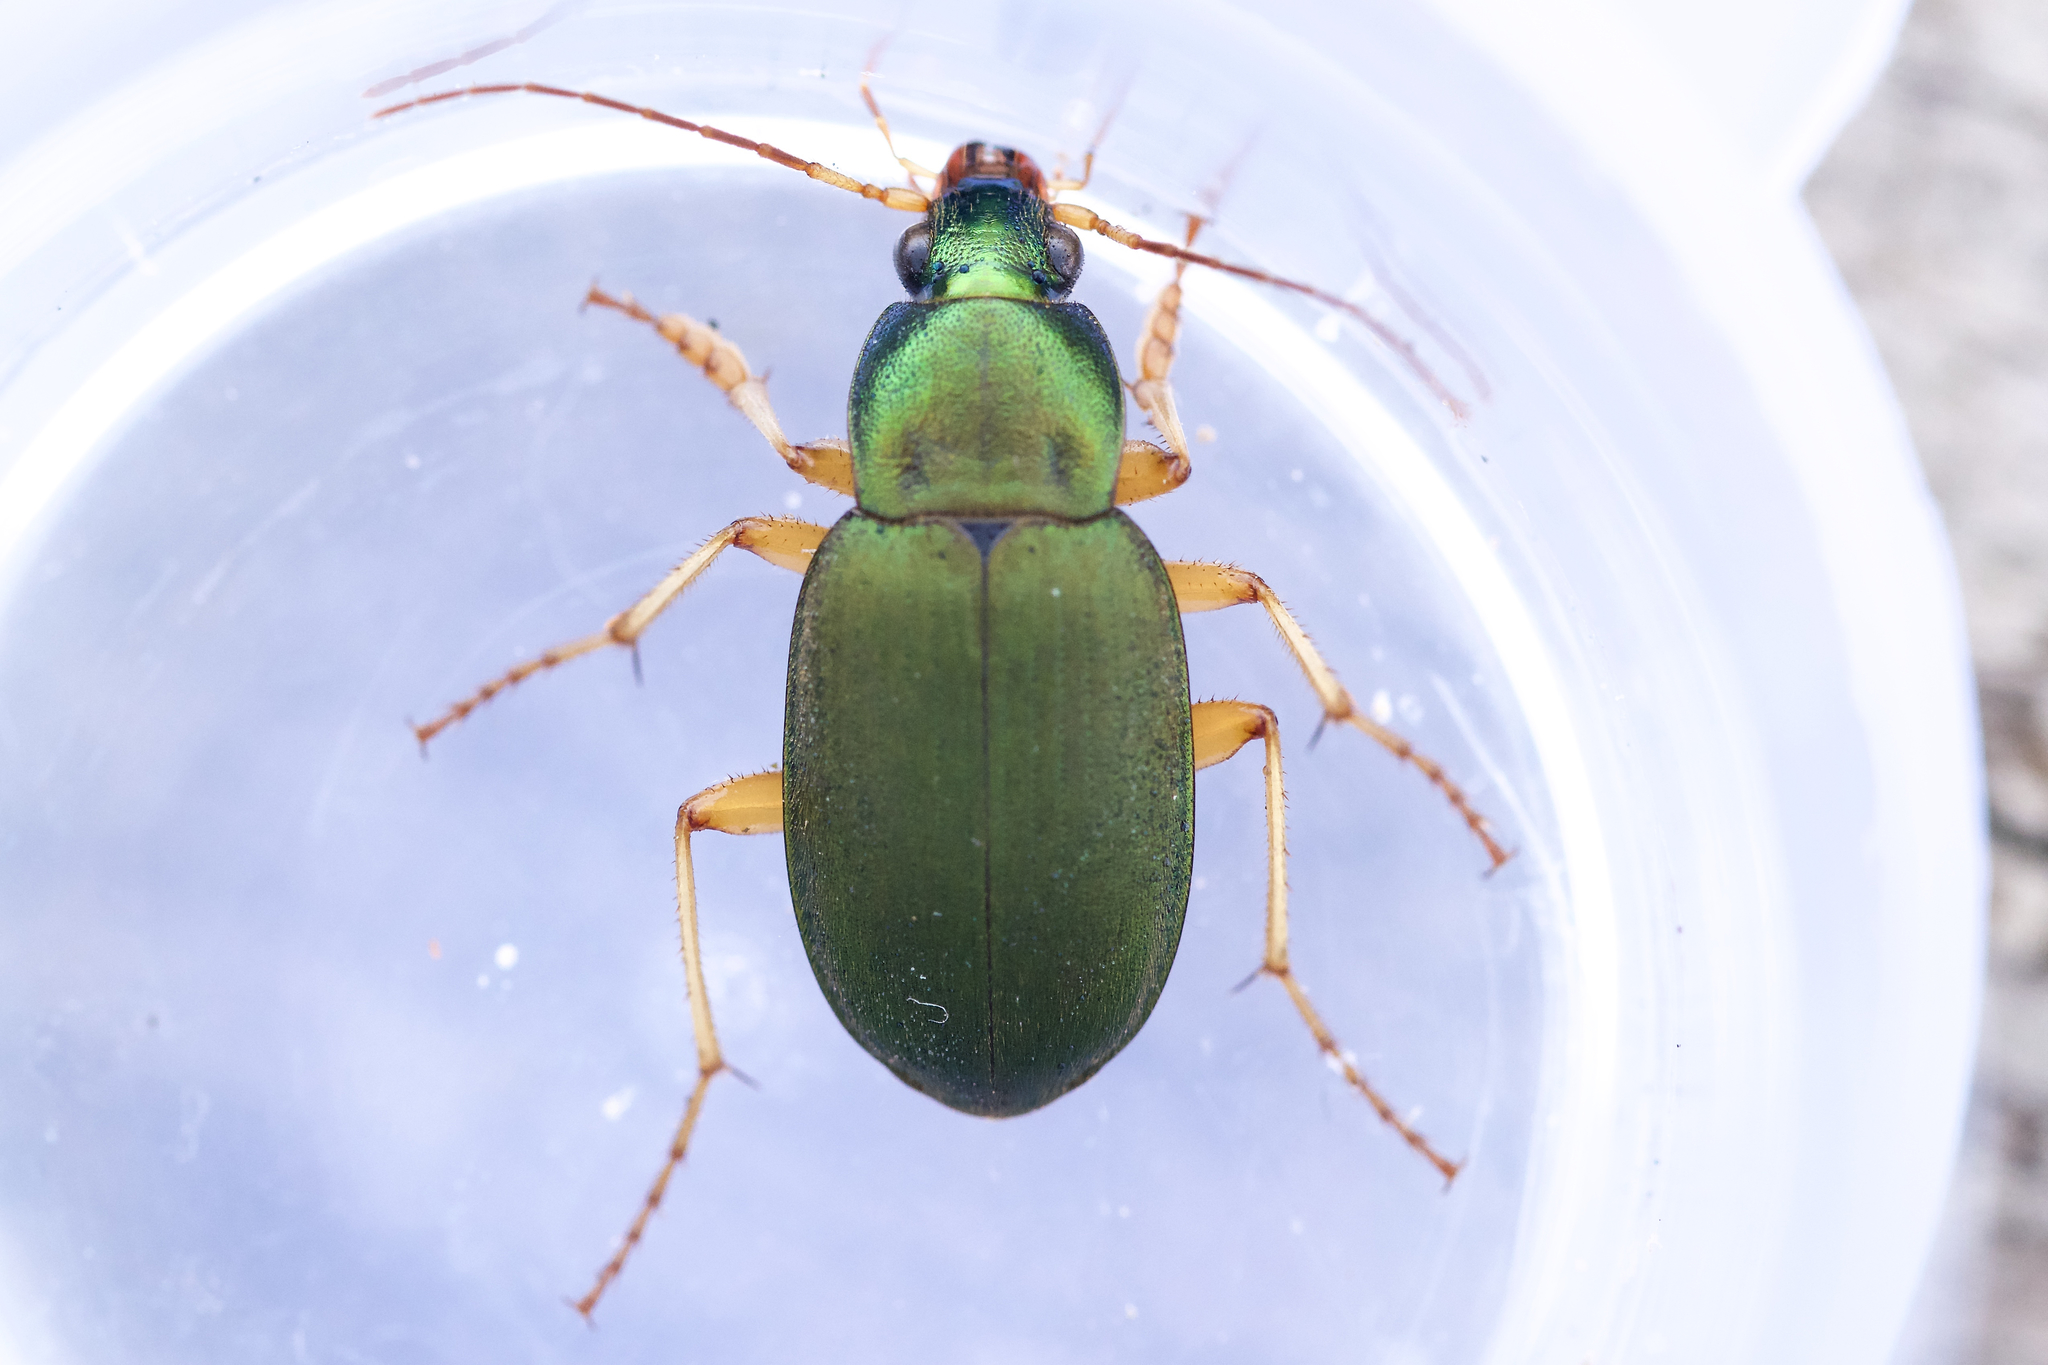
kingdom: Animalia
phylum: Arthropoda
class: Insecta
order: Coleoptera
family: Carabidae
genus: Chlaenius
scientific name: Chlaenius sericeus
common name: Green pubescent ground beetle
